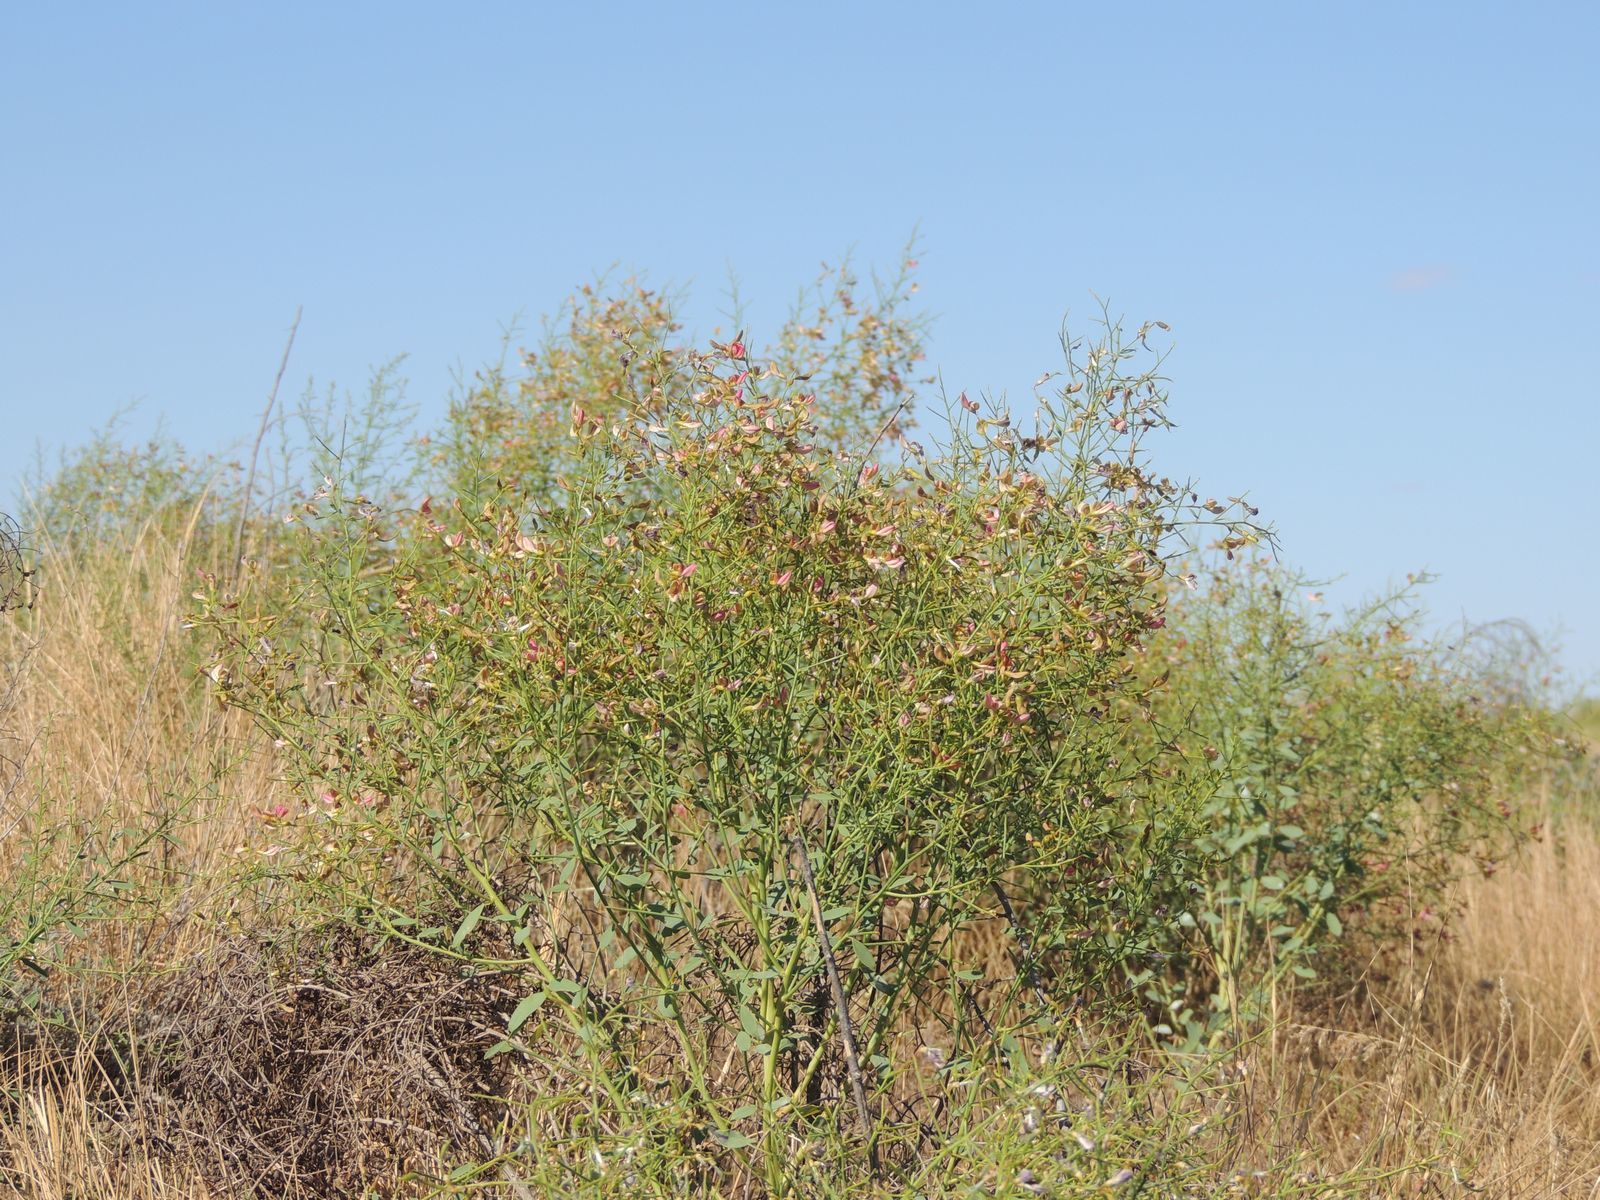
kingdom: Plantae
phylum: Tracheophyta
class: Magnoliopsida
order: Fabales
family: Fabaceae
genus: Alhagi
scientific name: Alhagi pseudalhagi
